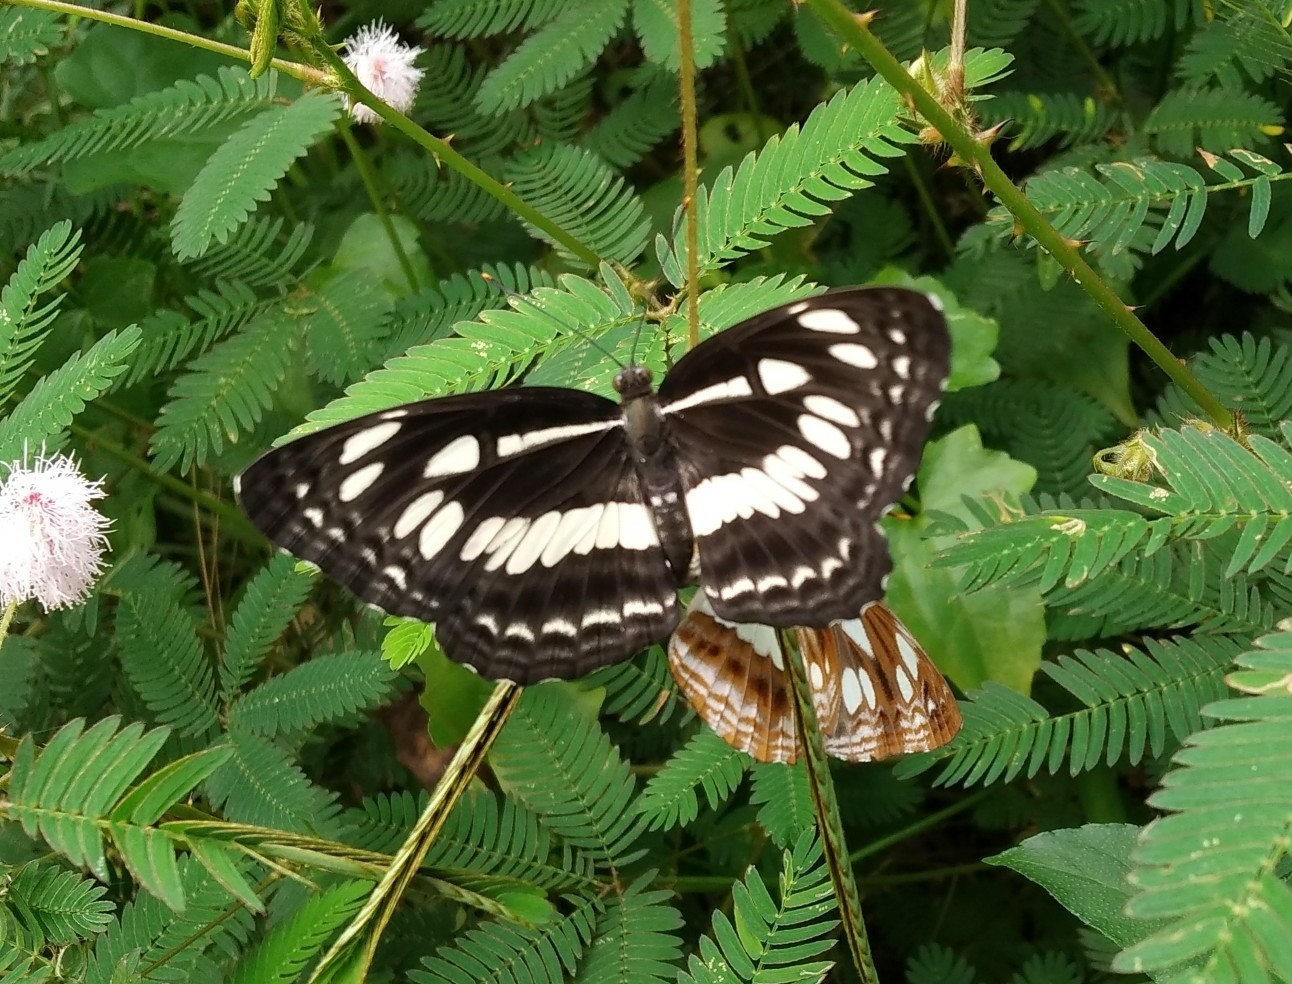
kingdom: Animalia
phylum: Arthropoda
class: Insecta
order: Lepidoptera
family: Nymphalidae
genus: Neptis
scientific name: Neptis jumbah
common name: Chestnut-streaked sailer
